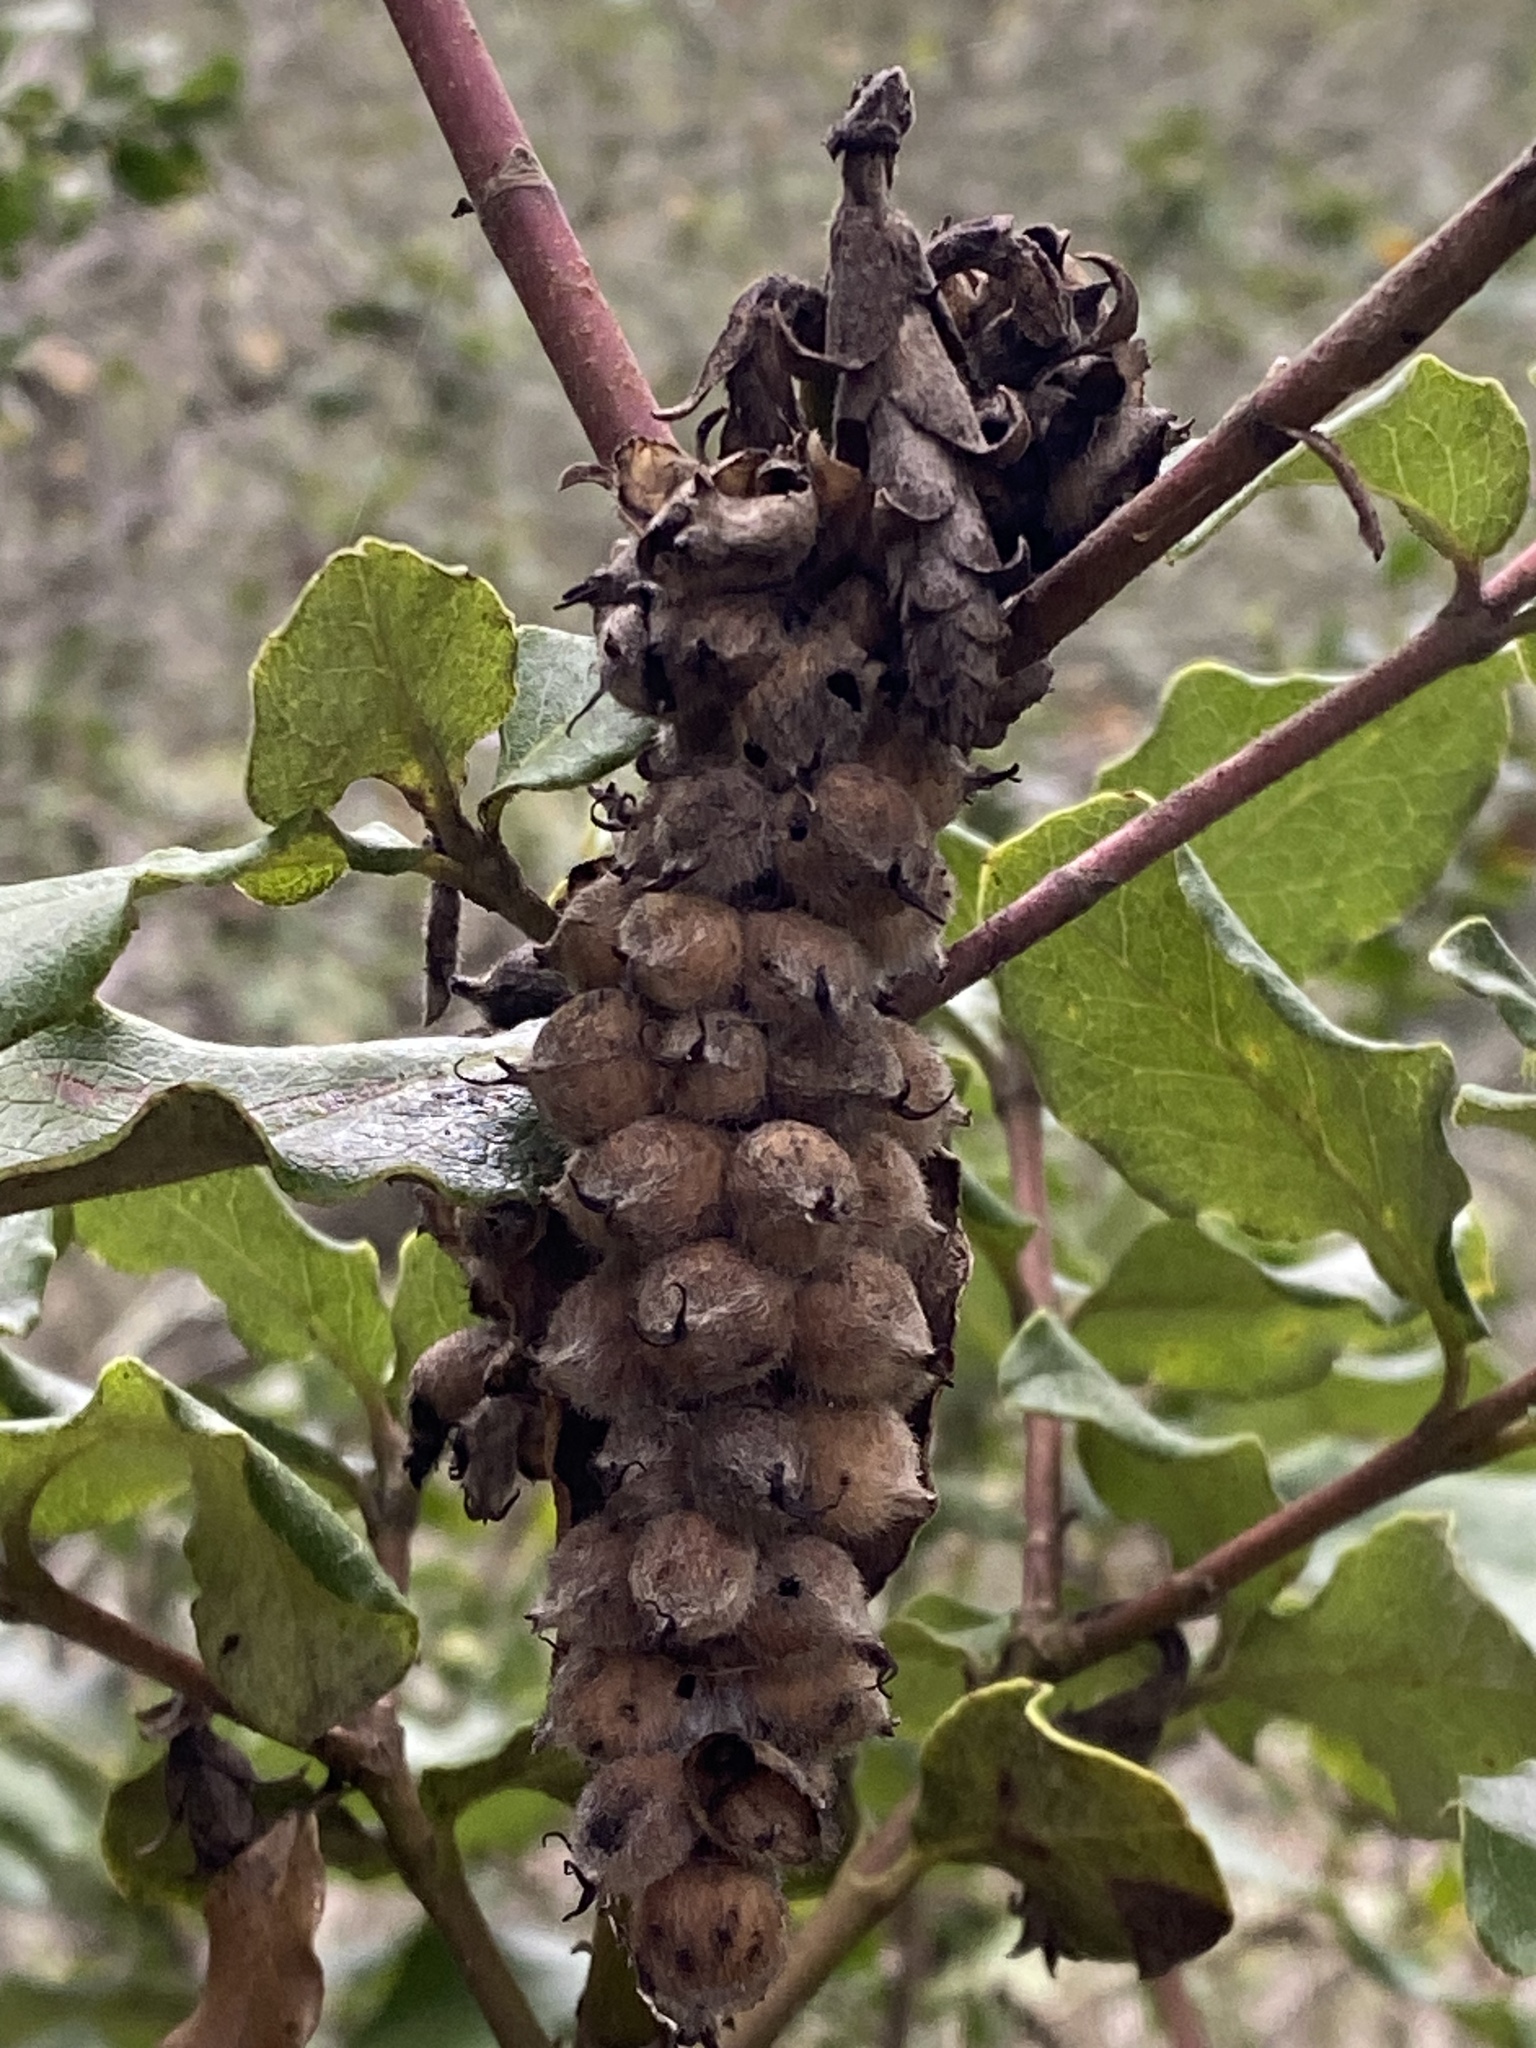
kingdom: Plantae
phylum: Tracheophyta
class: Magnoliopsida
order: Garryales
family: Garryaceae
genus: Garrya
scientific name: Garrya elliptica
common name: Silk-tassel
